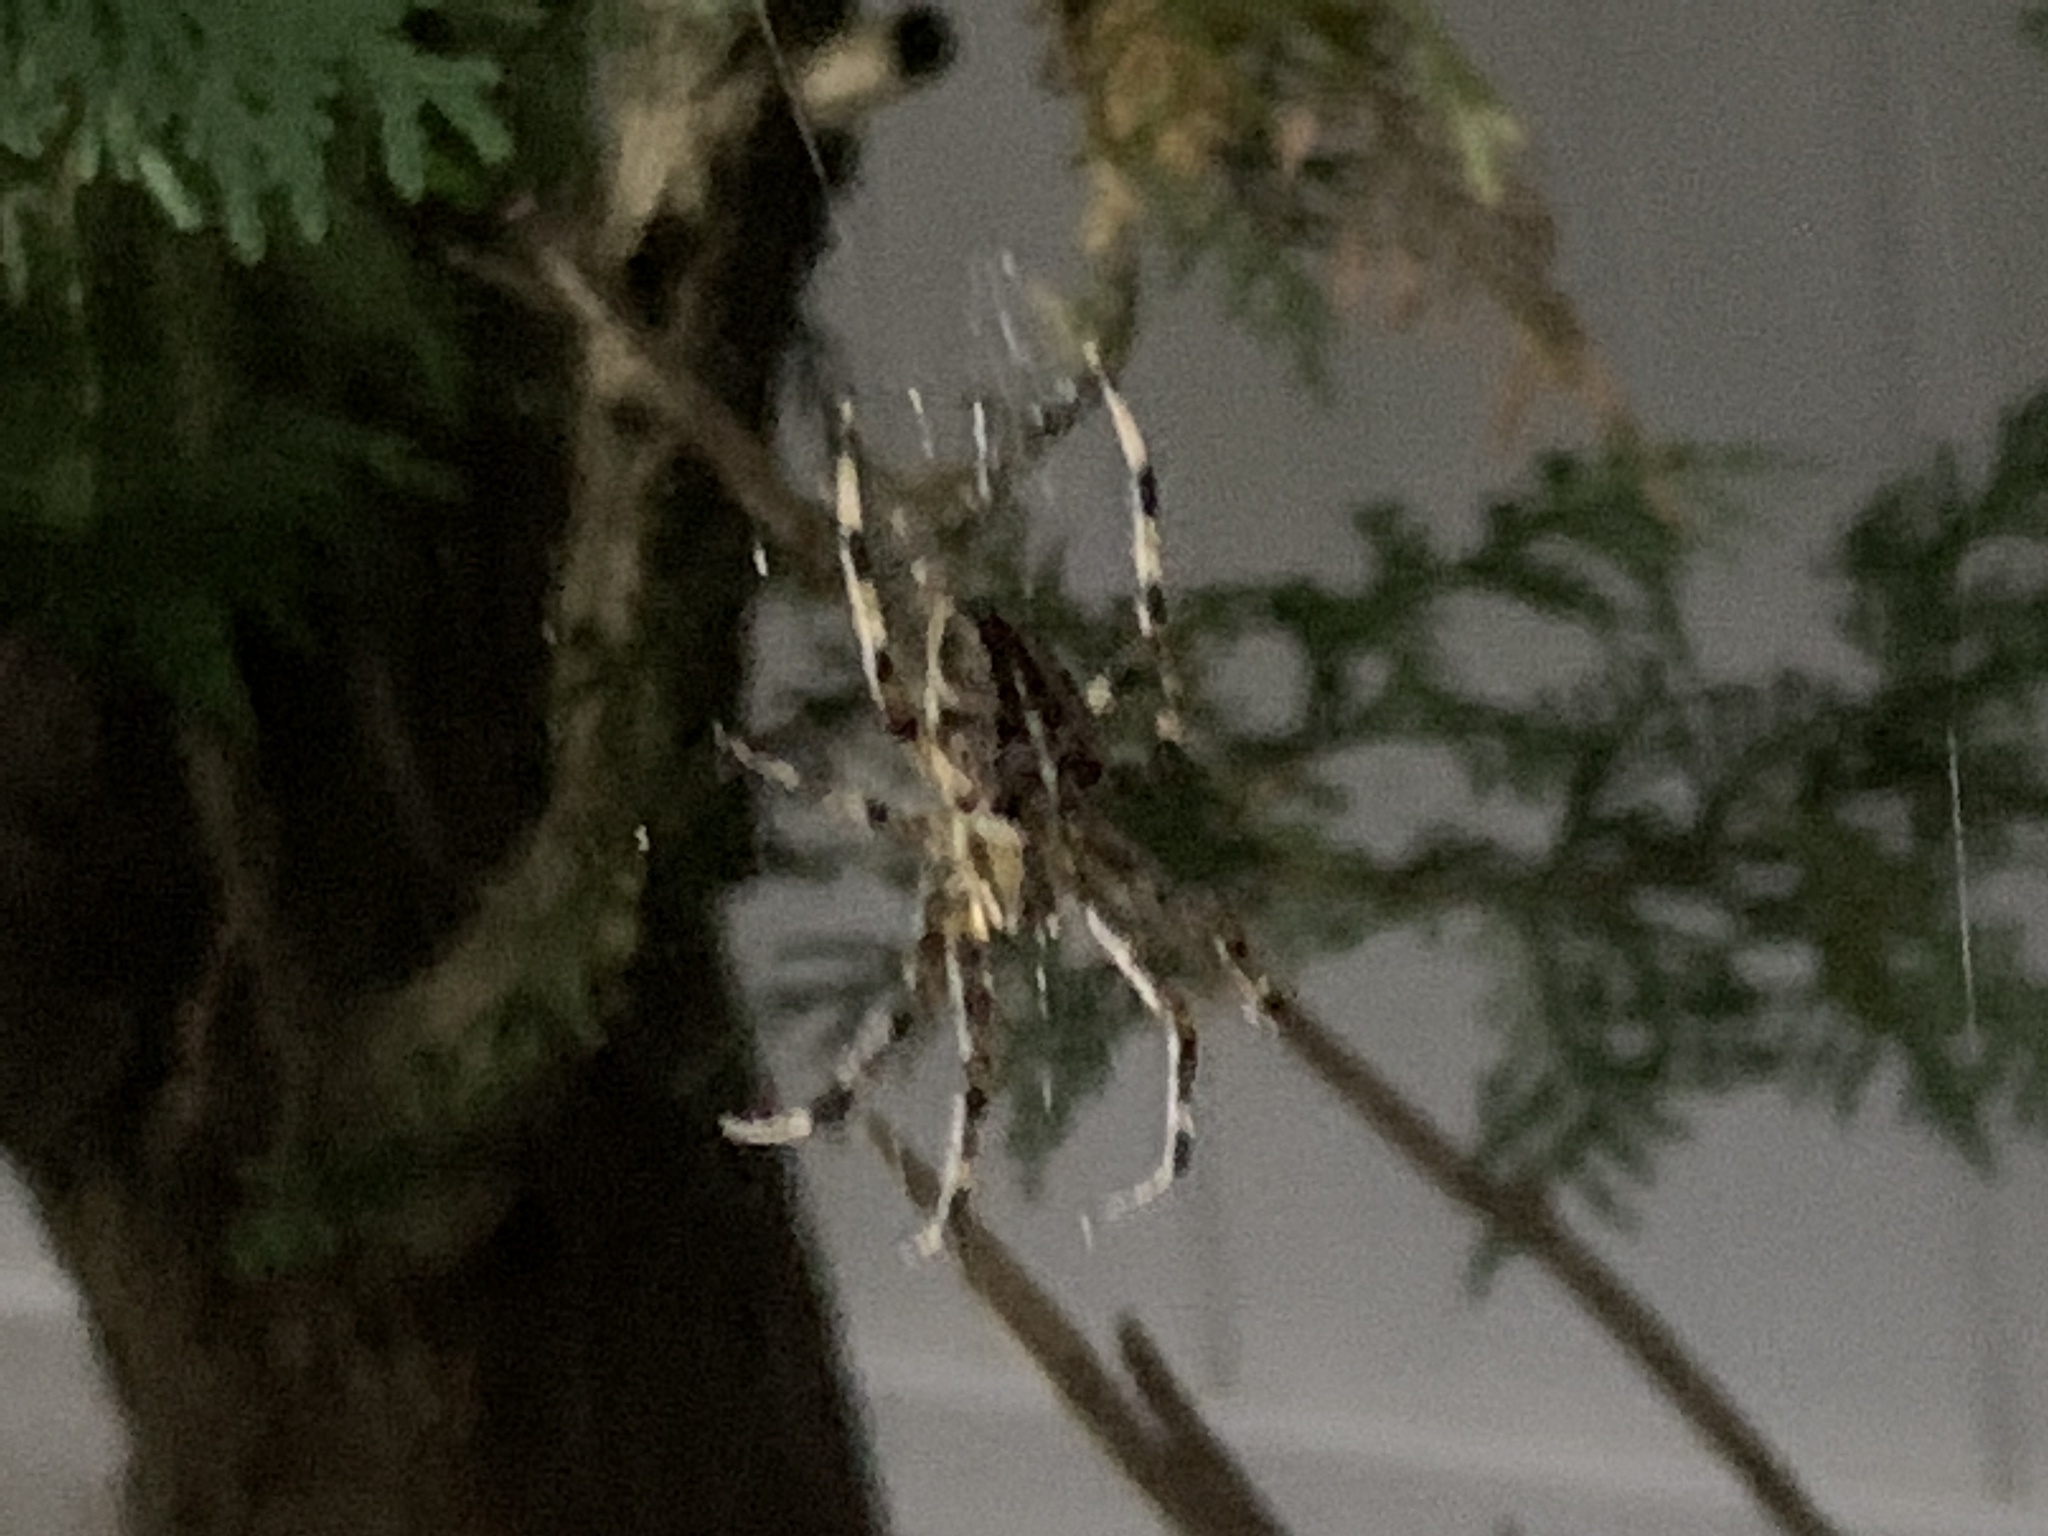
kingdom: Animalia
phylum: Arthropoda
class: Arachnida
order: Araneae
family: Araneidae
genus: Araneus
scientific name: Araneus diadematus
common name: Cross orbweaver
